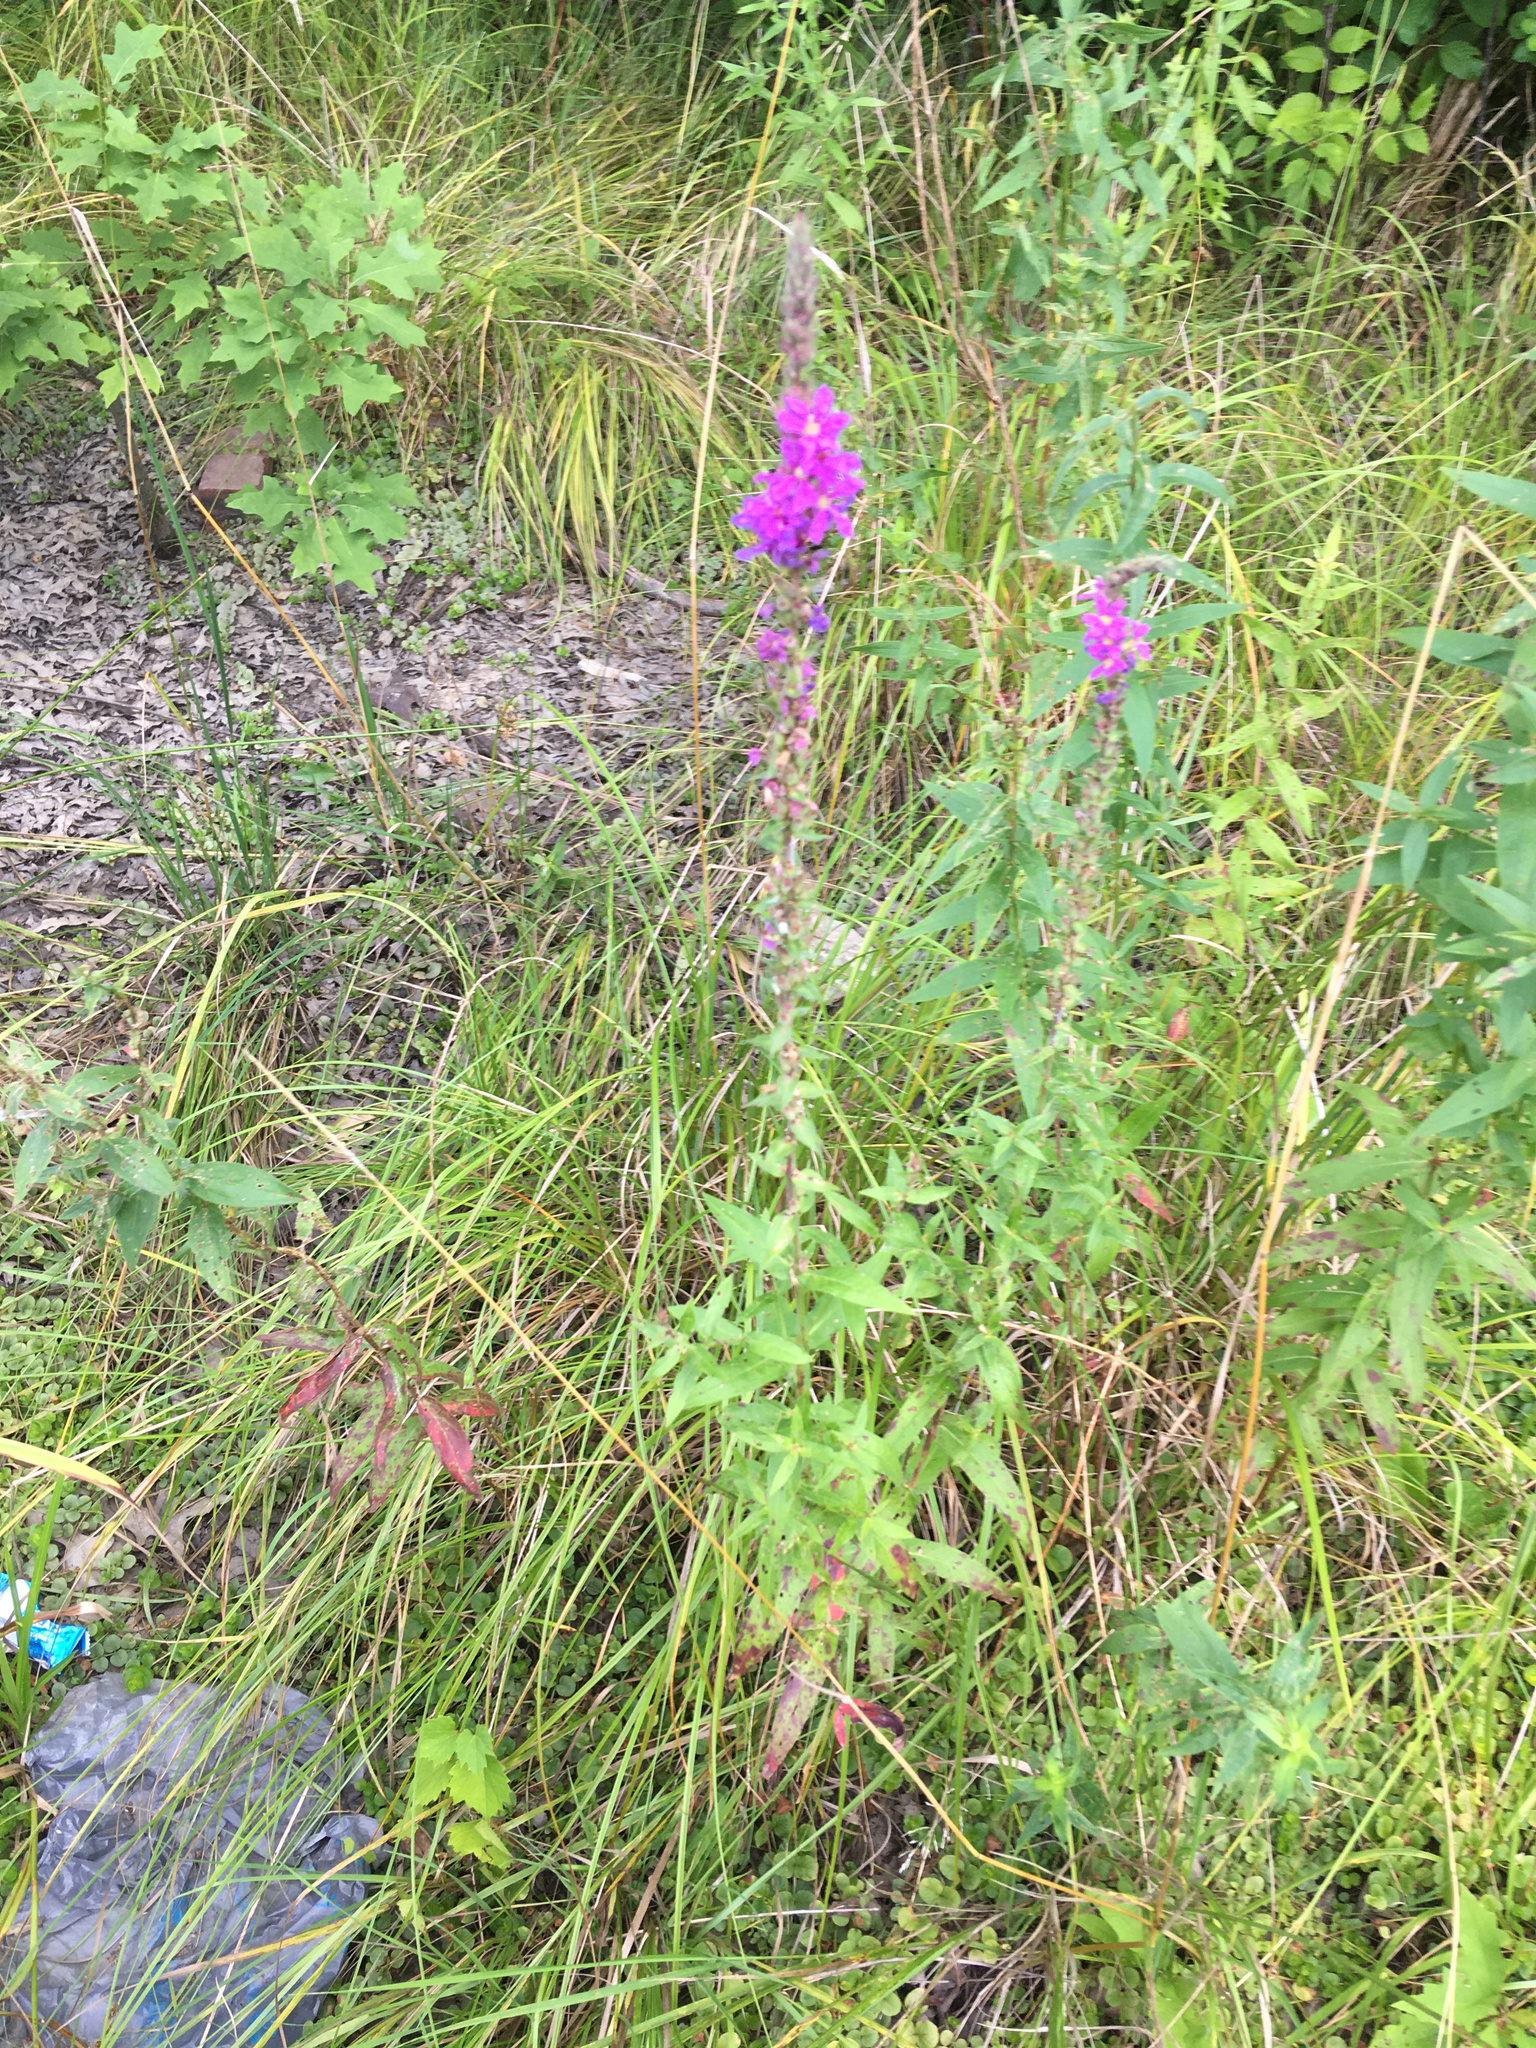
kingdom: Plantae
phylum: Tracheophyta
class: Magnoliopsida
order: Myrtales
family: Lythraceae
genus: Lythrum
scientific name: Lythrum salicaria
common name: Purple loosestrife
